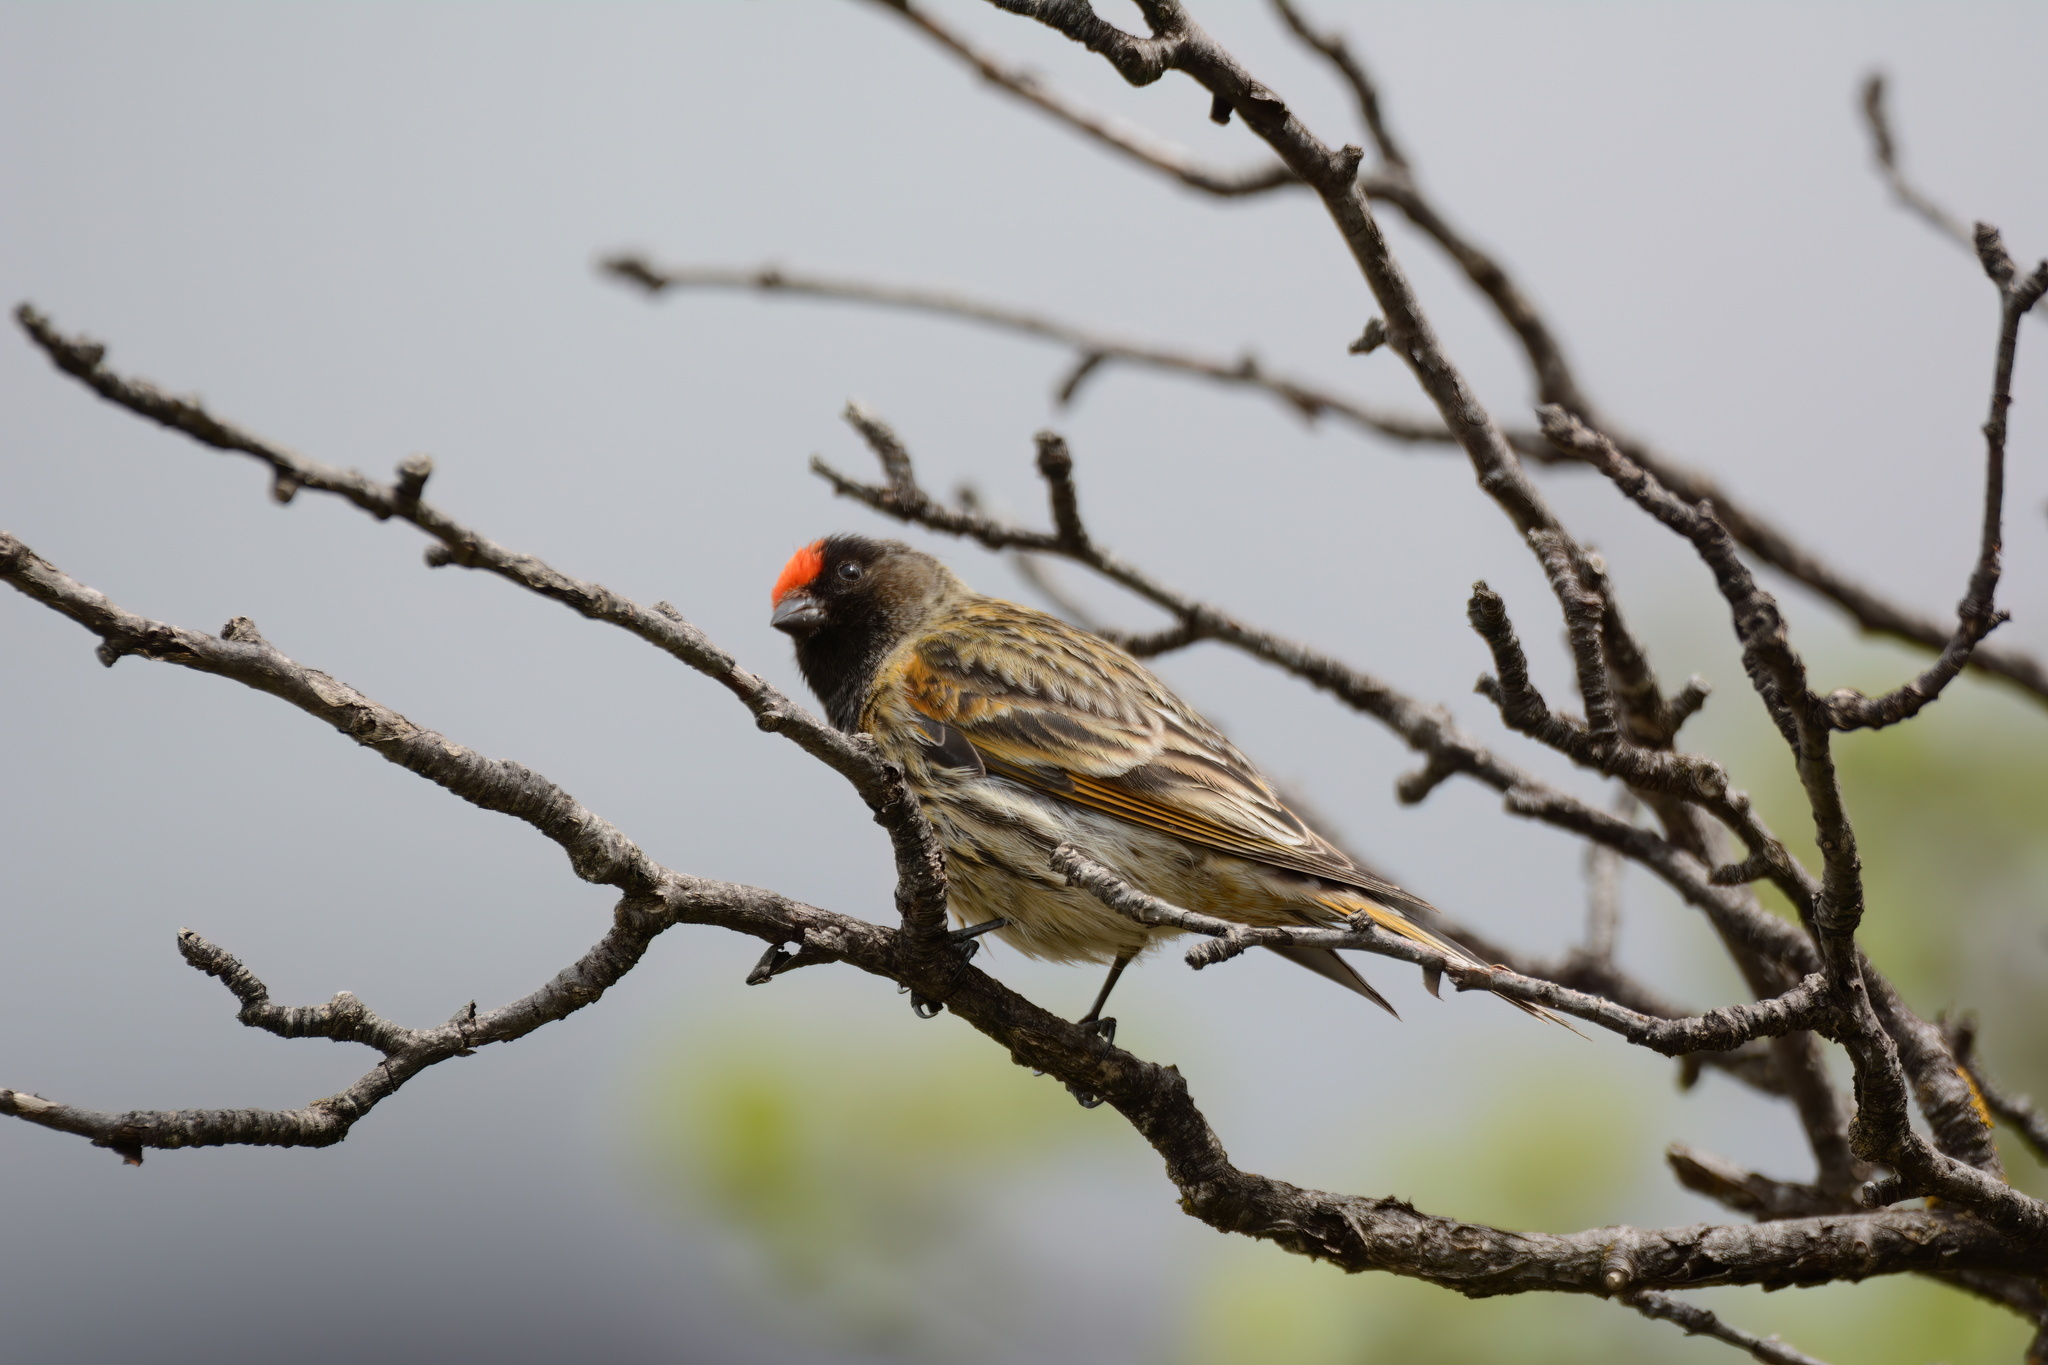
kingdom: Animalia
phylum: Chordata
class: Aves
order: Passeriformes
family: Fringillidae
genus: Serinus
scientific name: Serinus pusillus
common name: Red-fronted serin
